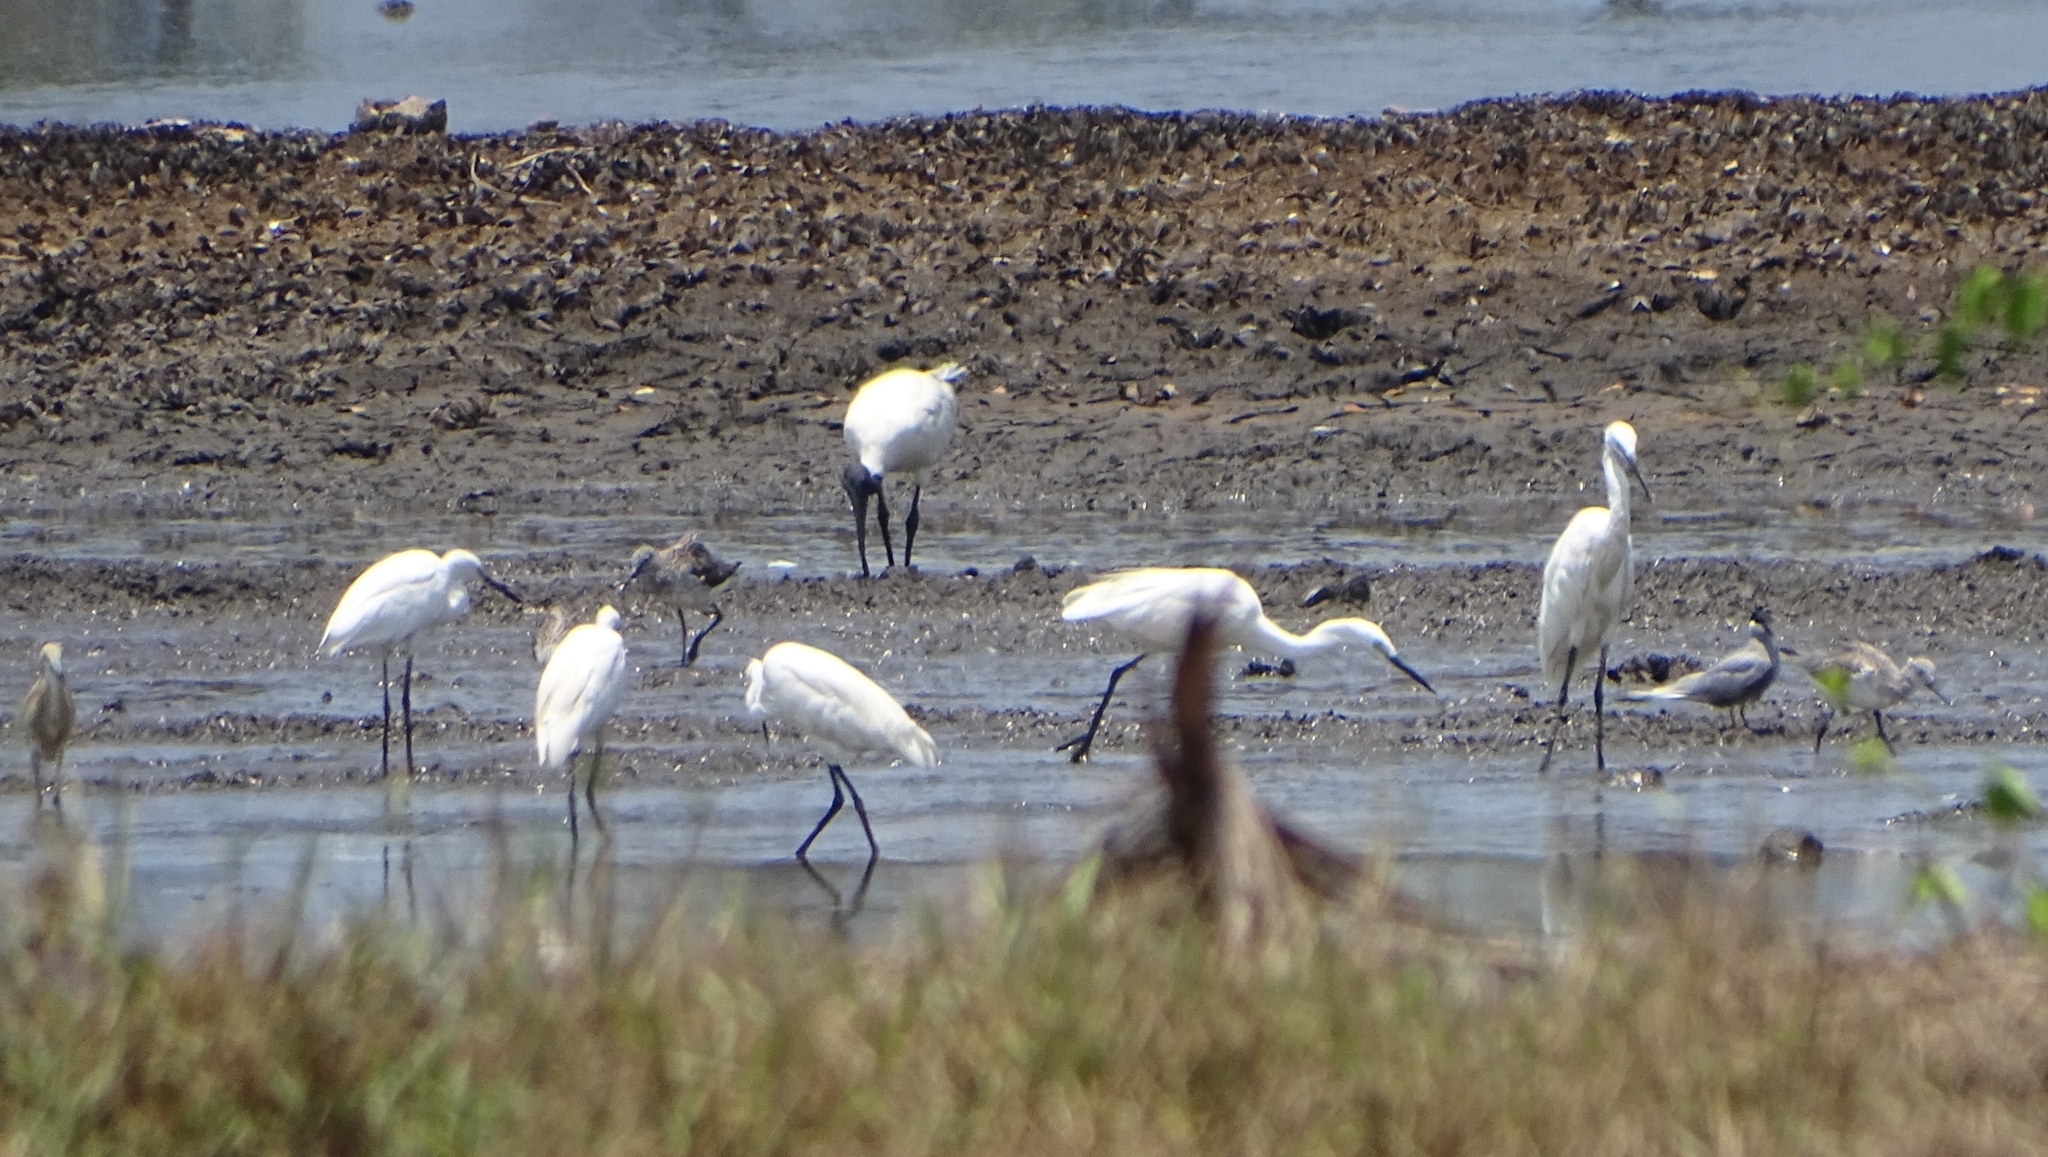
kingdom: Animalia
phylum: Chordata
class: Aves
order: Pelecaniformes
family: Ardeidae
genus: Egretta
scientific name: Egretta garzetta
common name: Little egret
